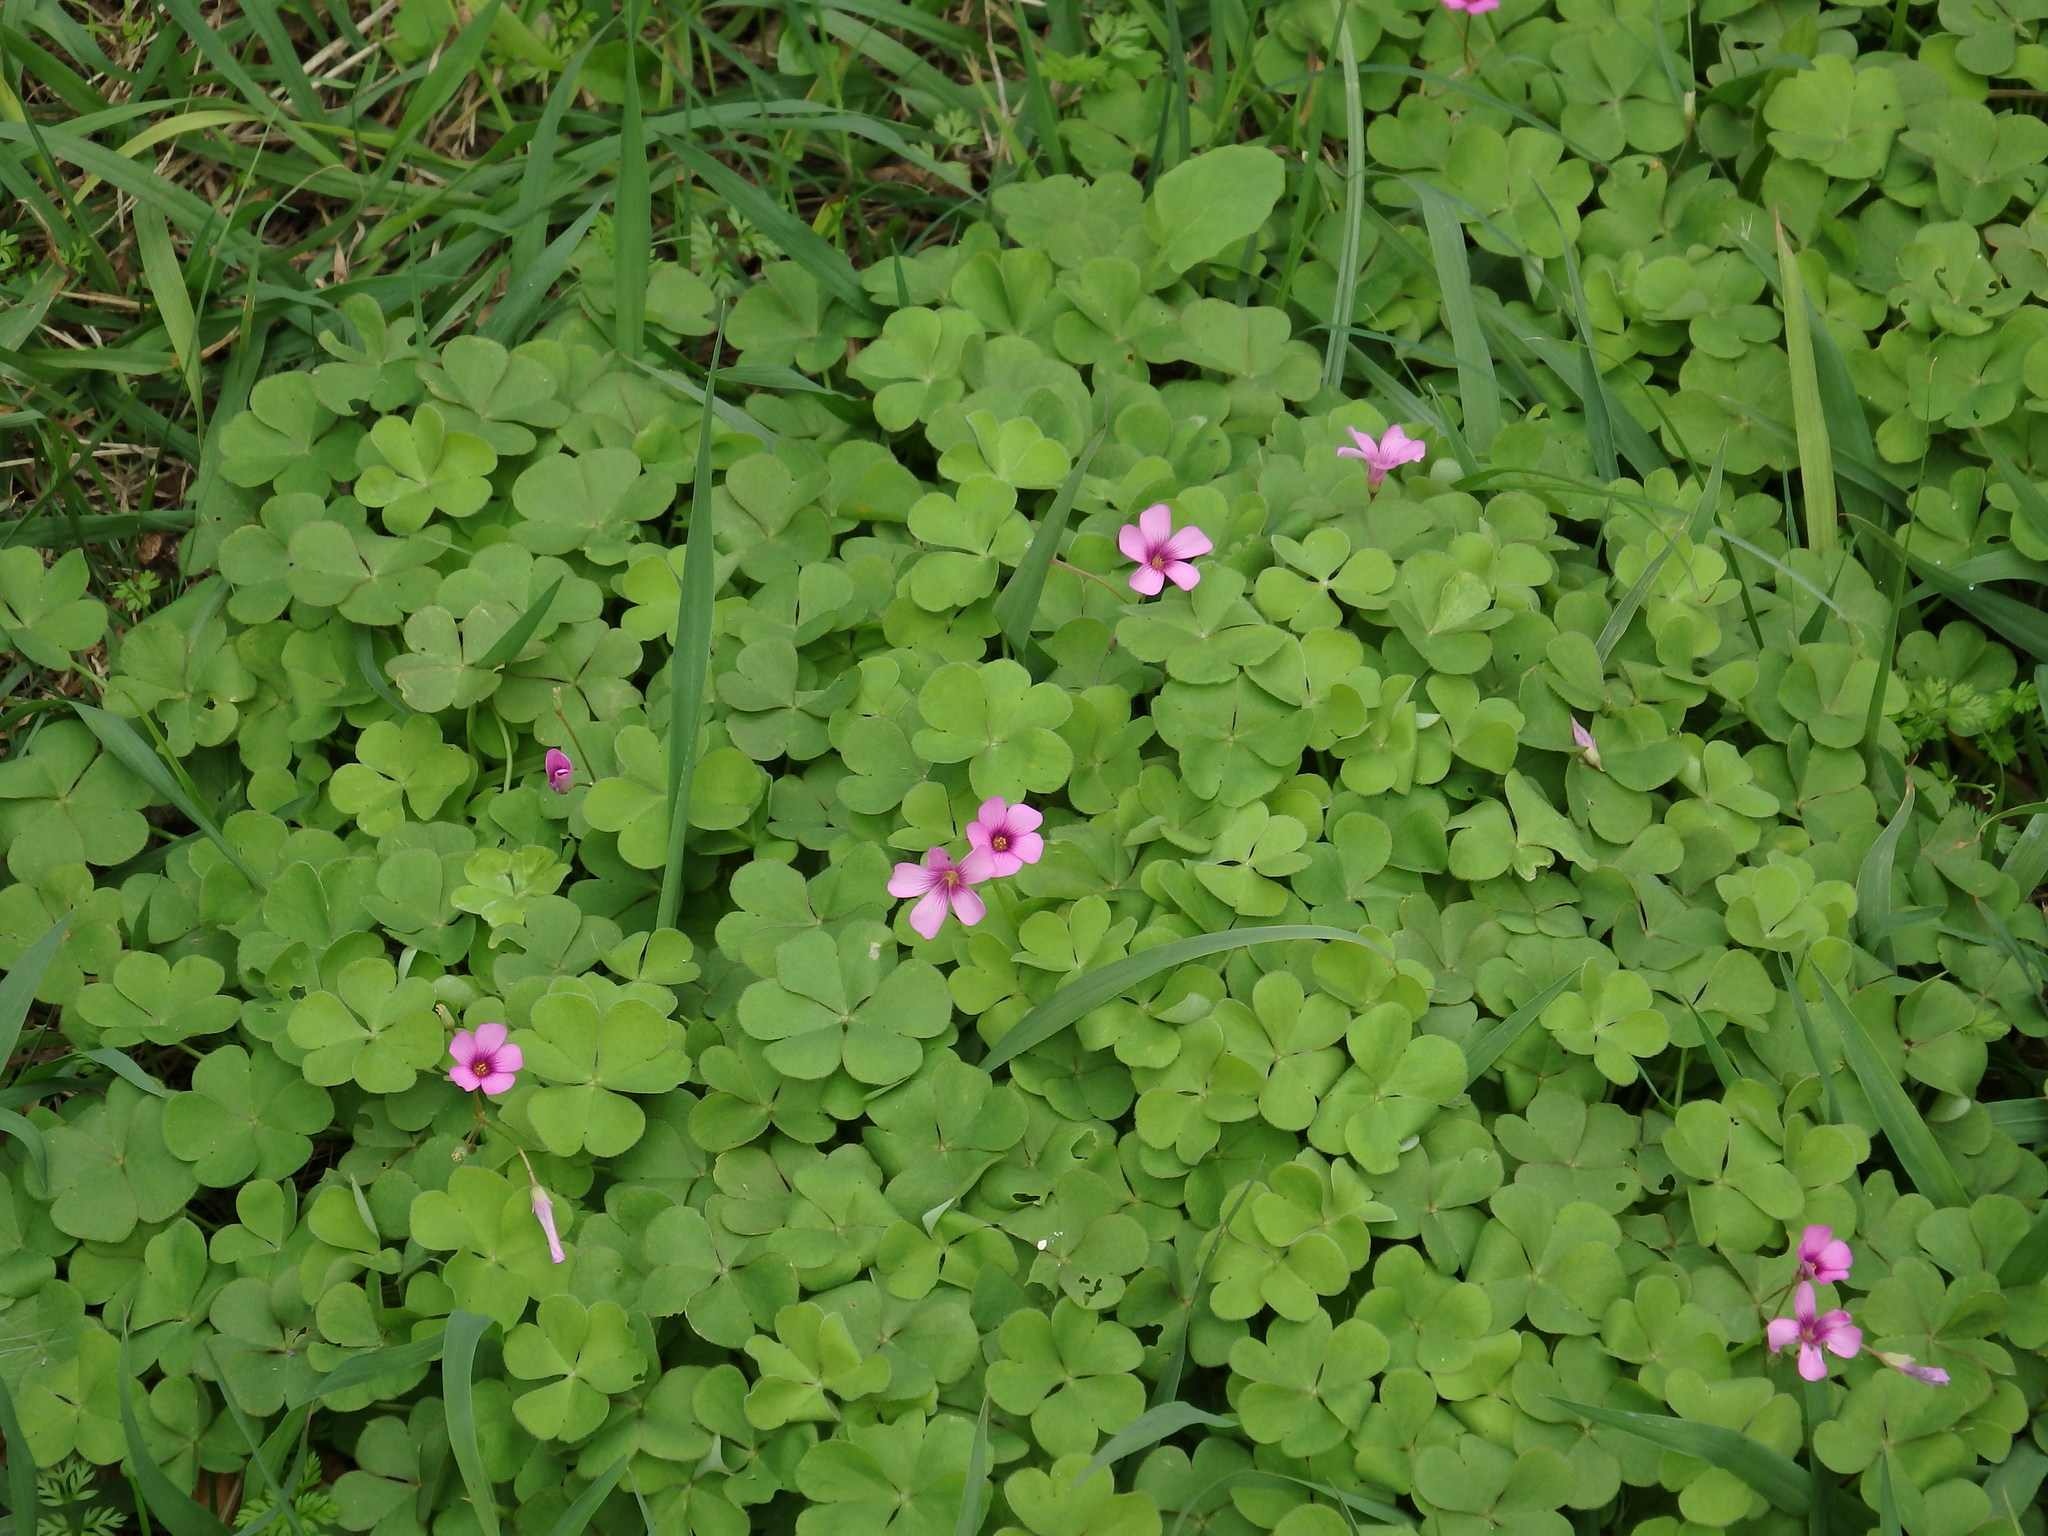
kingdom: Plantae
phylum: Tracheophyta
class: Magnoliopsida
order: Oxalidales
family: Oxalidaceae
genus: Oxalis
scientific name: Oxalis articulata
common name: Pink-sorrel
